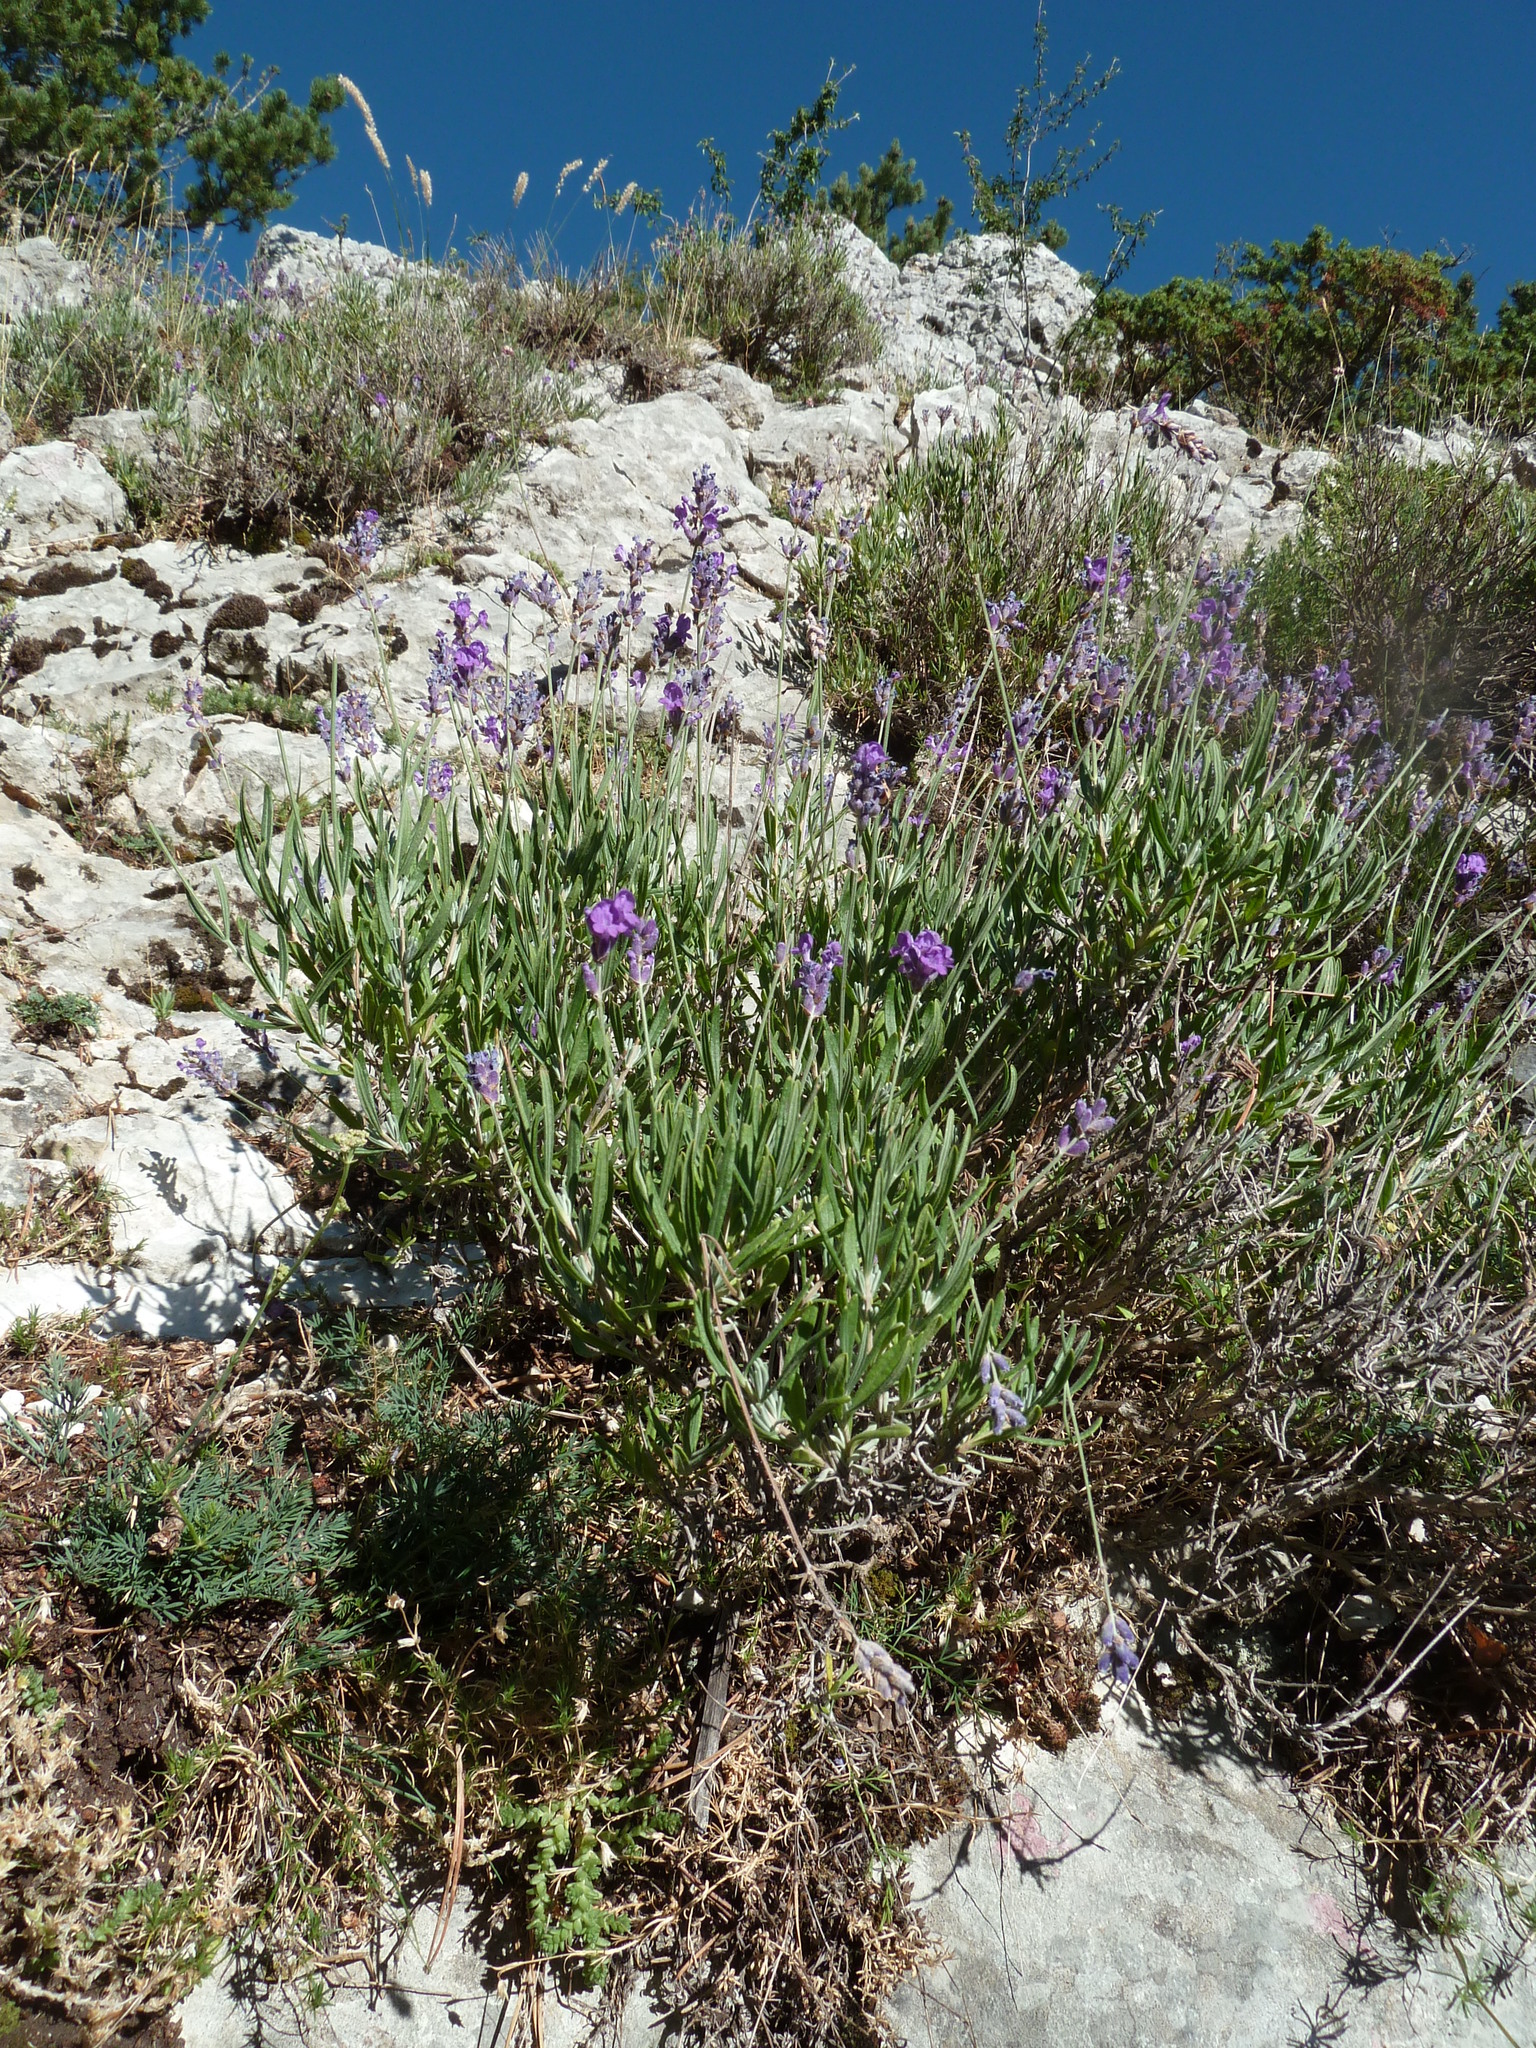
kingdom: Plantae
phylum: Tracheophyta
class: Magnoliopsida
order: Lamiales
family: Lamiaceae
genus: Lavandula
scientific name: Lavandula angustifolia
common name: Garden lavender
